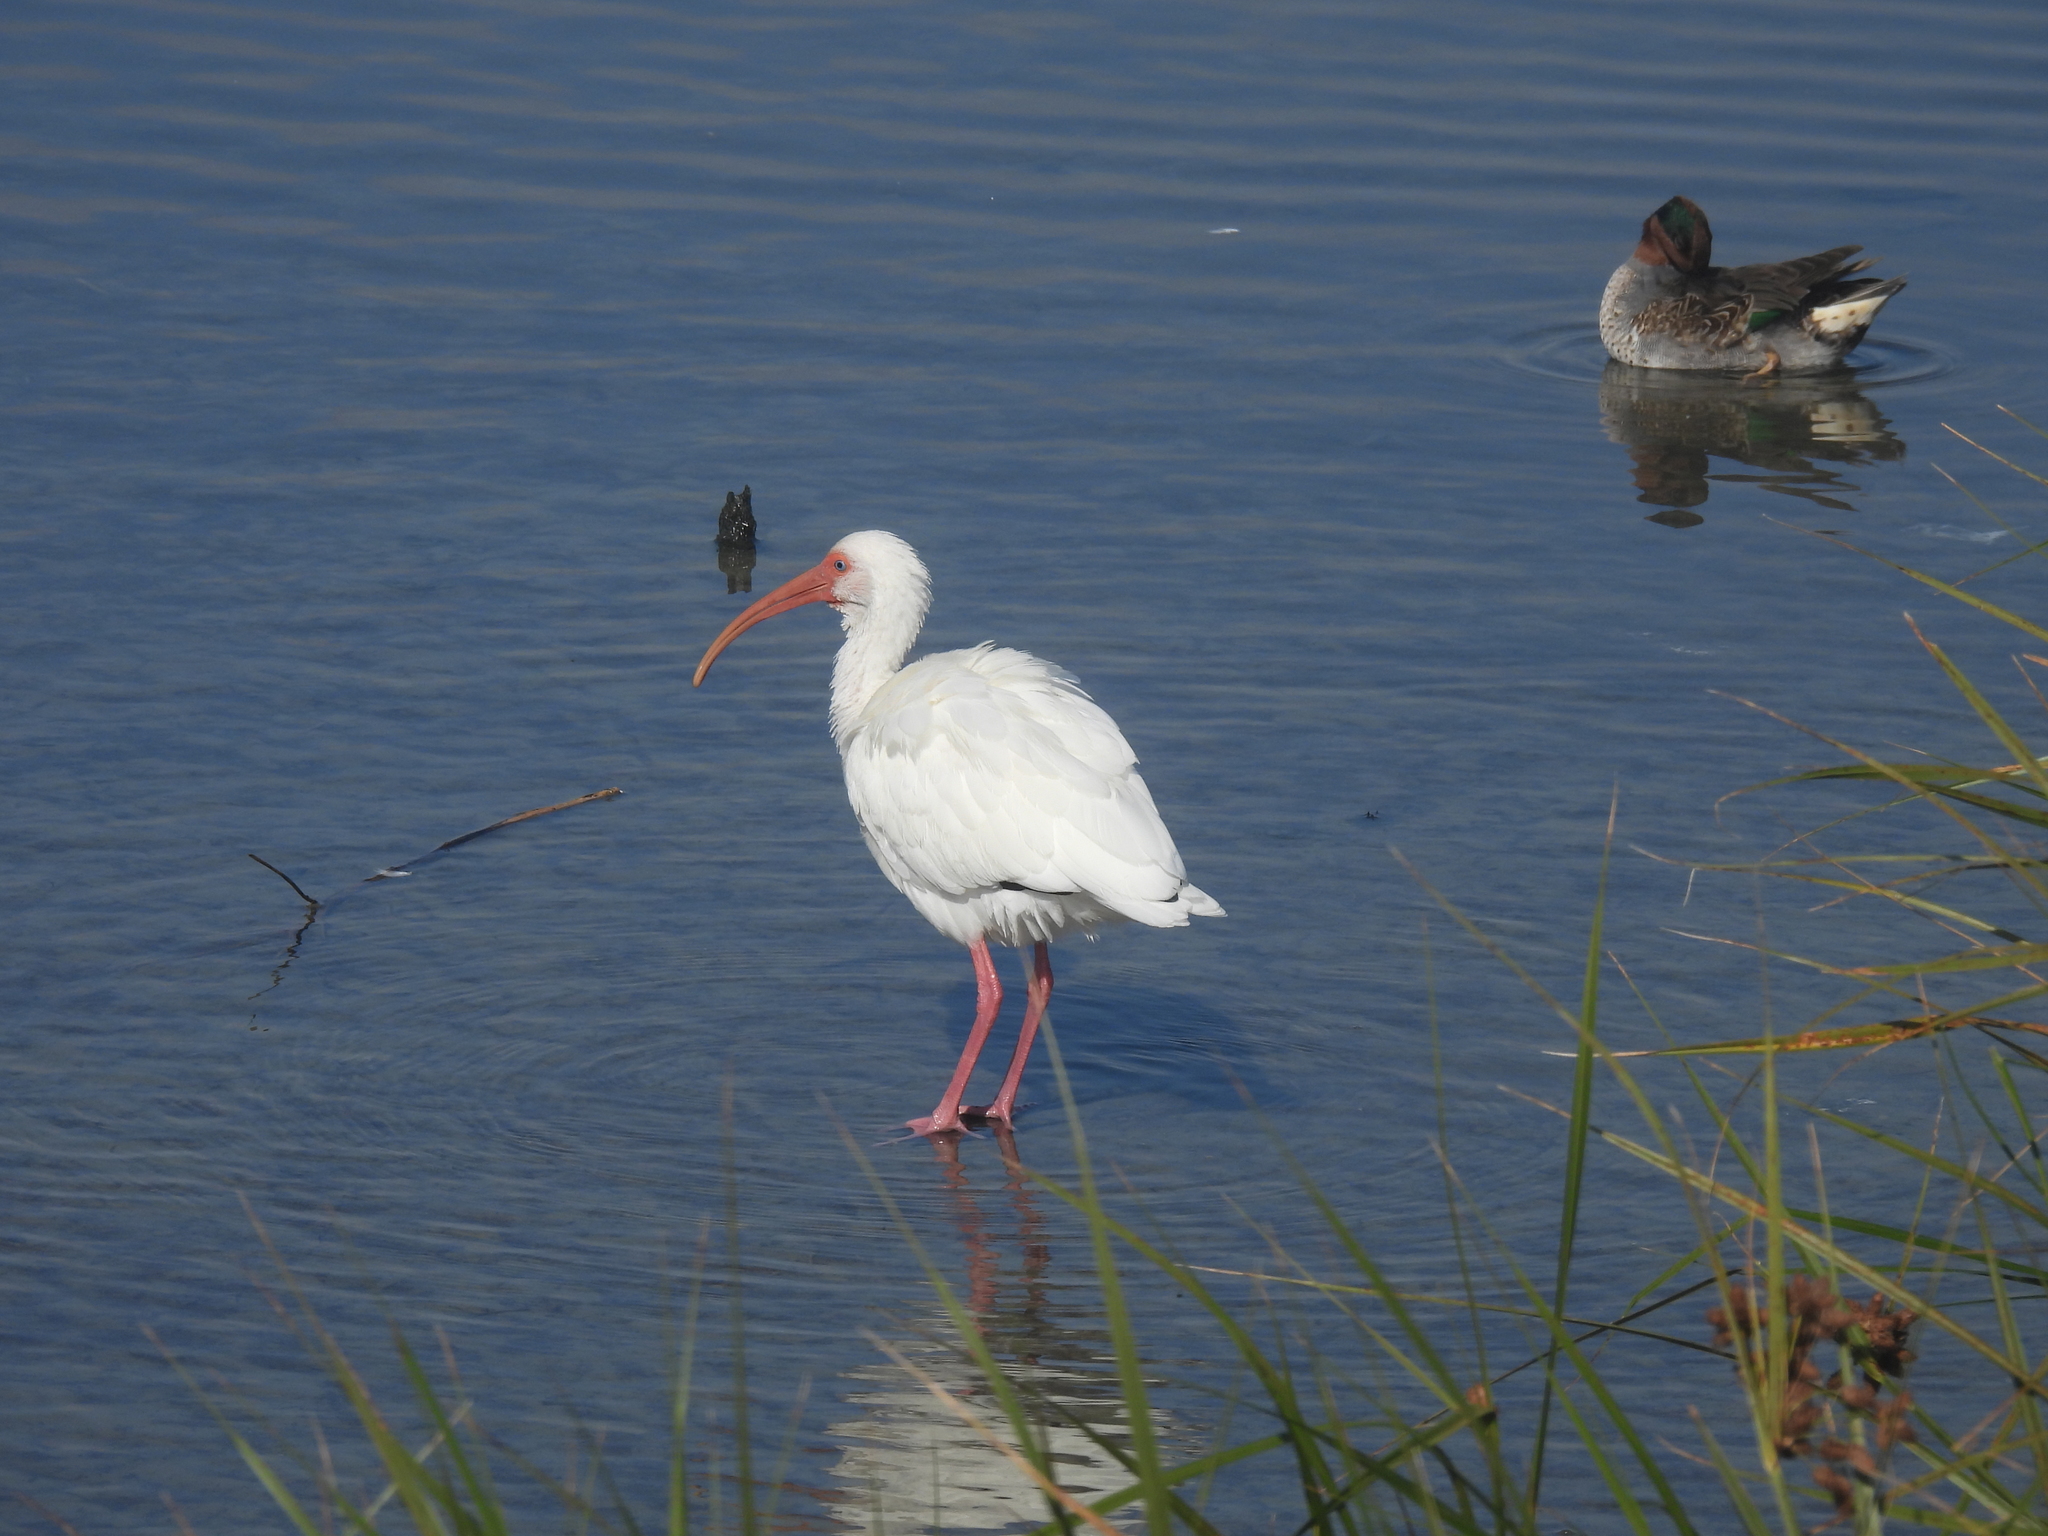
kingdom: Animalia
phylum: Chordata
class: Aves
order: Pelecaniformes
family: Threskiornithidae
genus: Eudocimus
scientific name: Eudocimus albus
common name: White ibis
